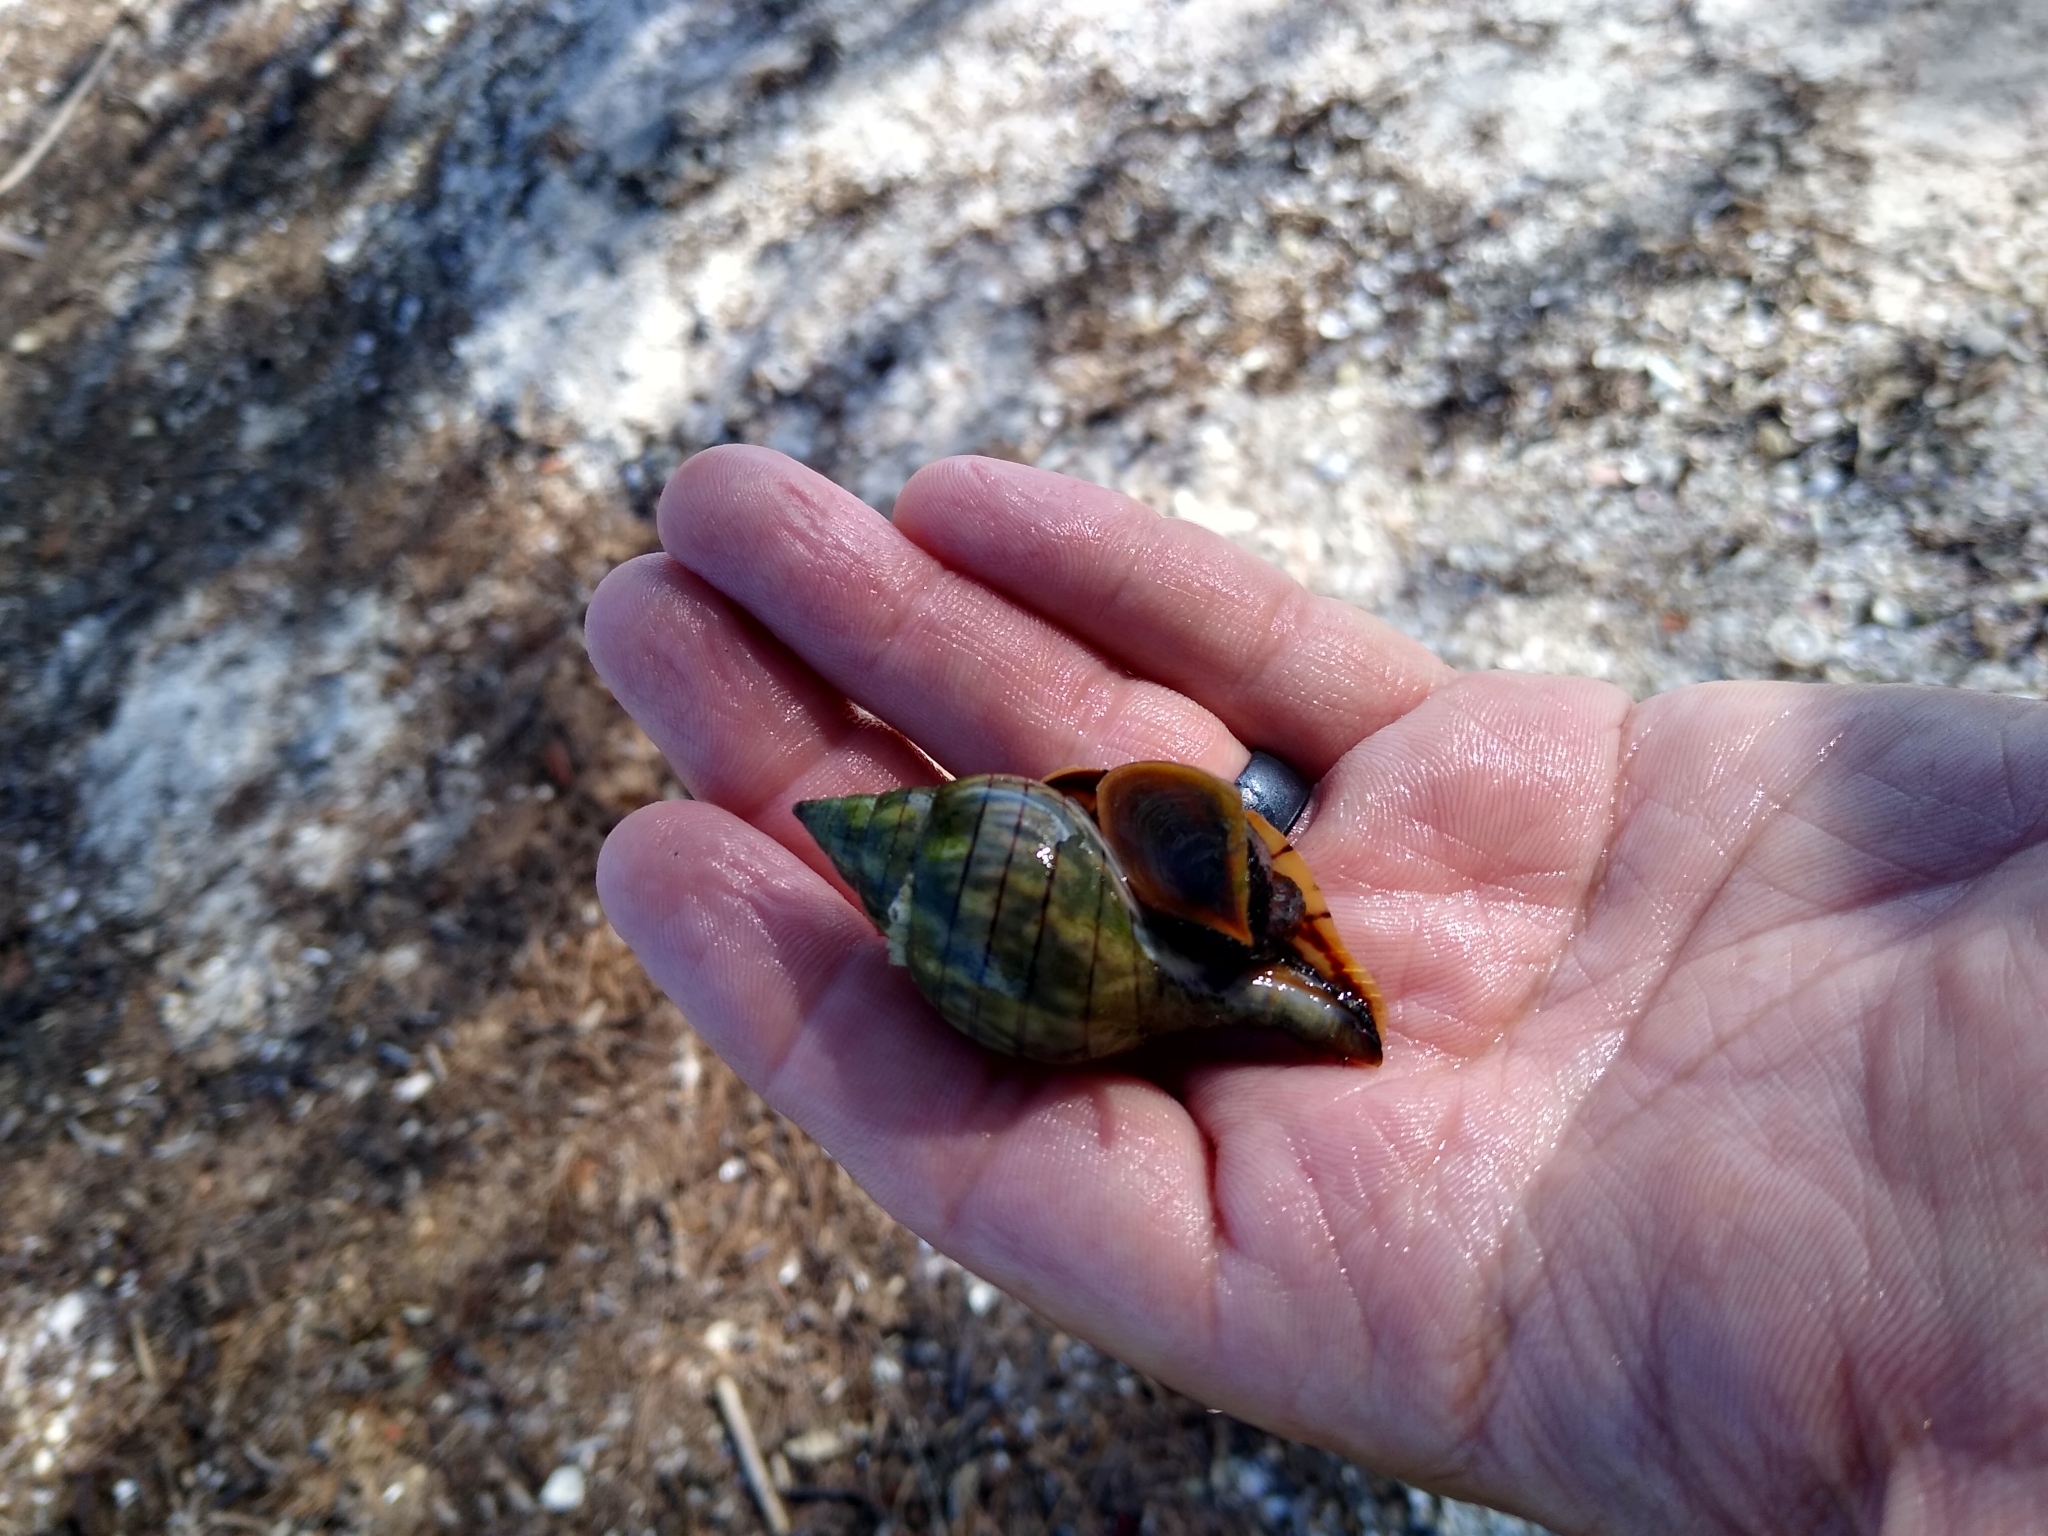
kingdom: Animalia
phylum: Mollusca
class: Gastropoda
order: Neogastropoda
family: Fasciolariidae
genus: Cinctura
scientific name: Cinctura hunteria
